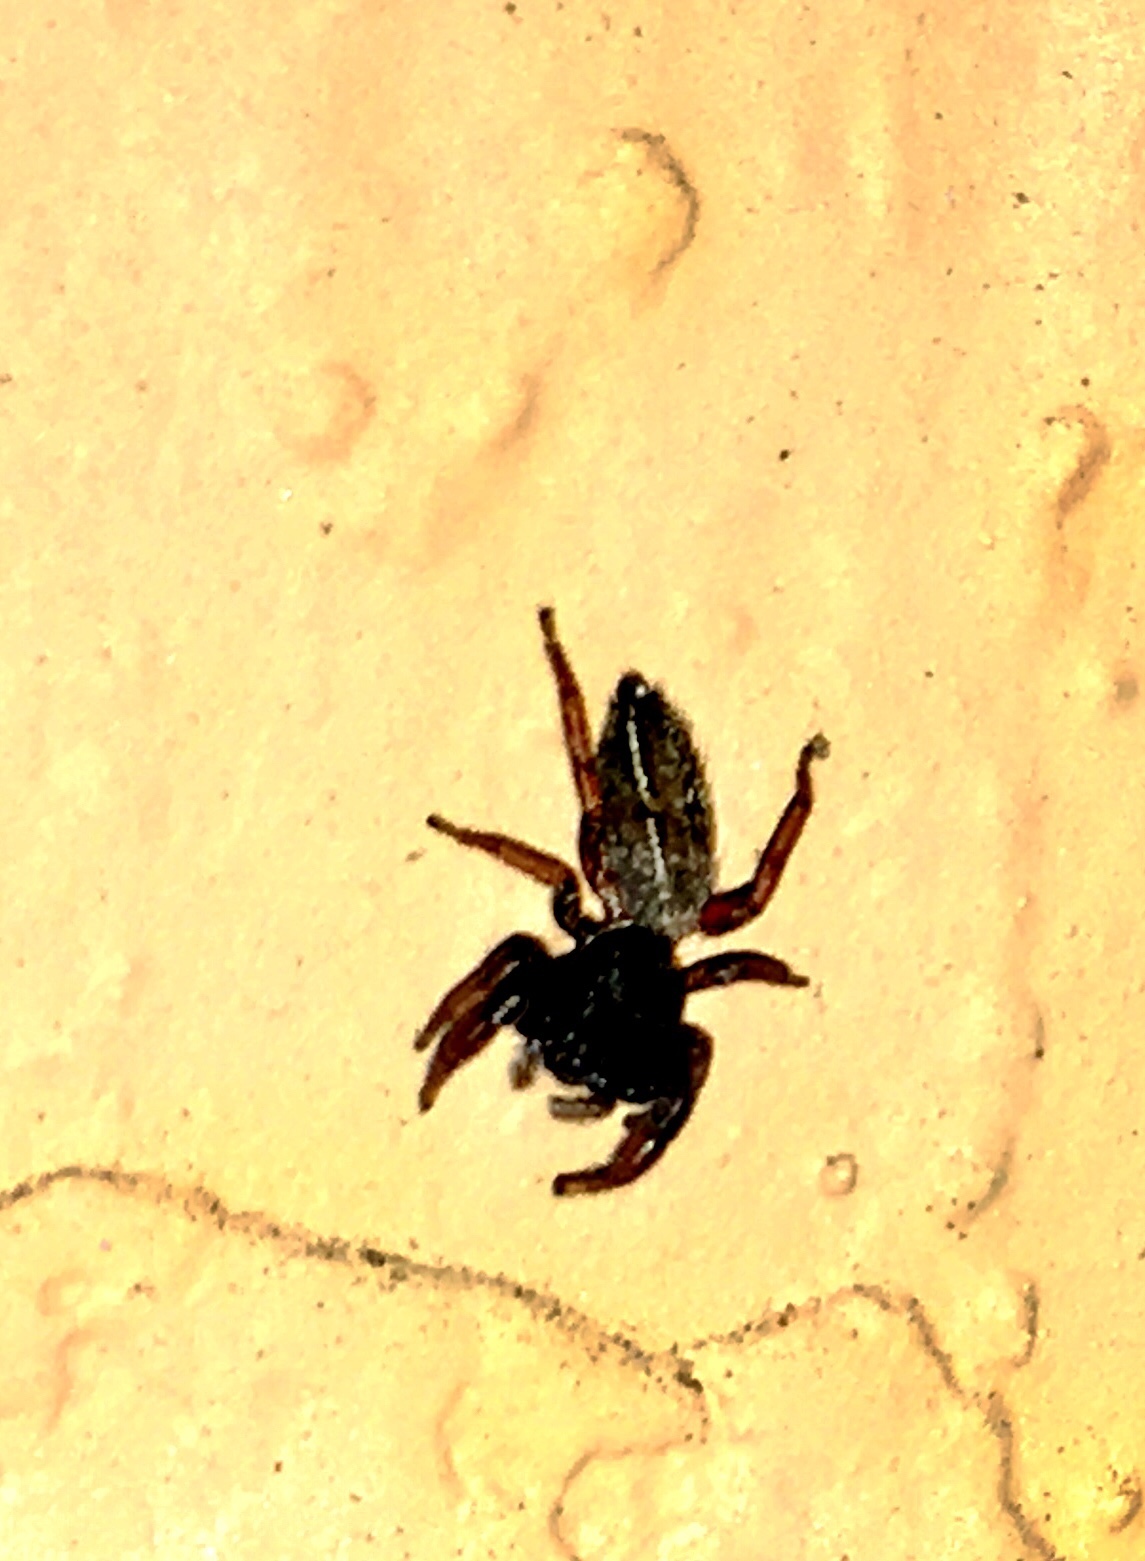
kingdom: Animalia
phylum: Arthropoda
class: Arachnida
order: Araneae
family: Salticidae
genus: Metacyrba
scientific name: Metacyrba taeniola
